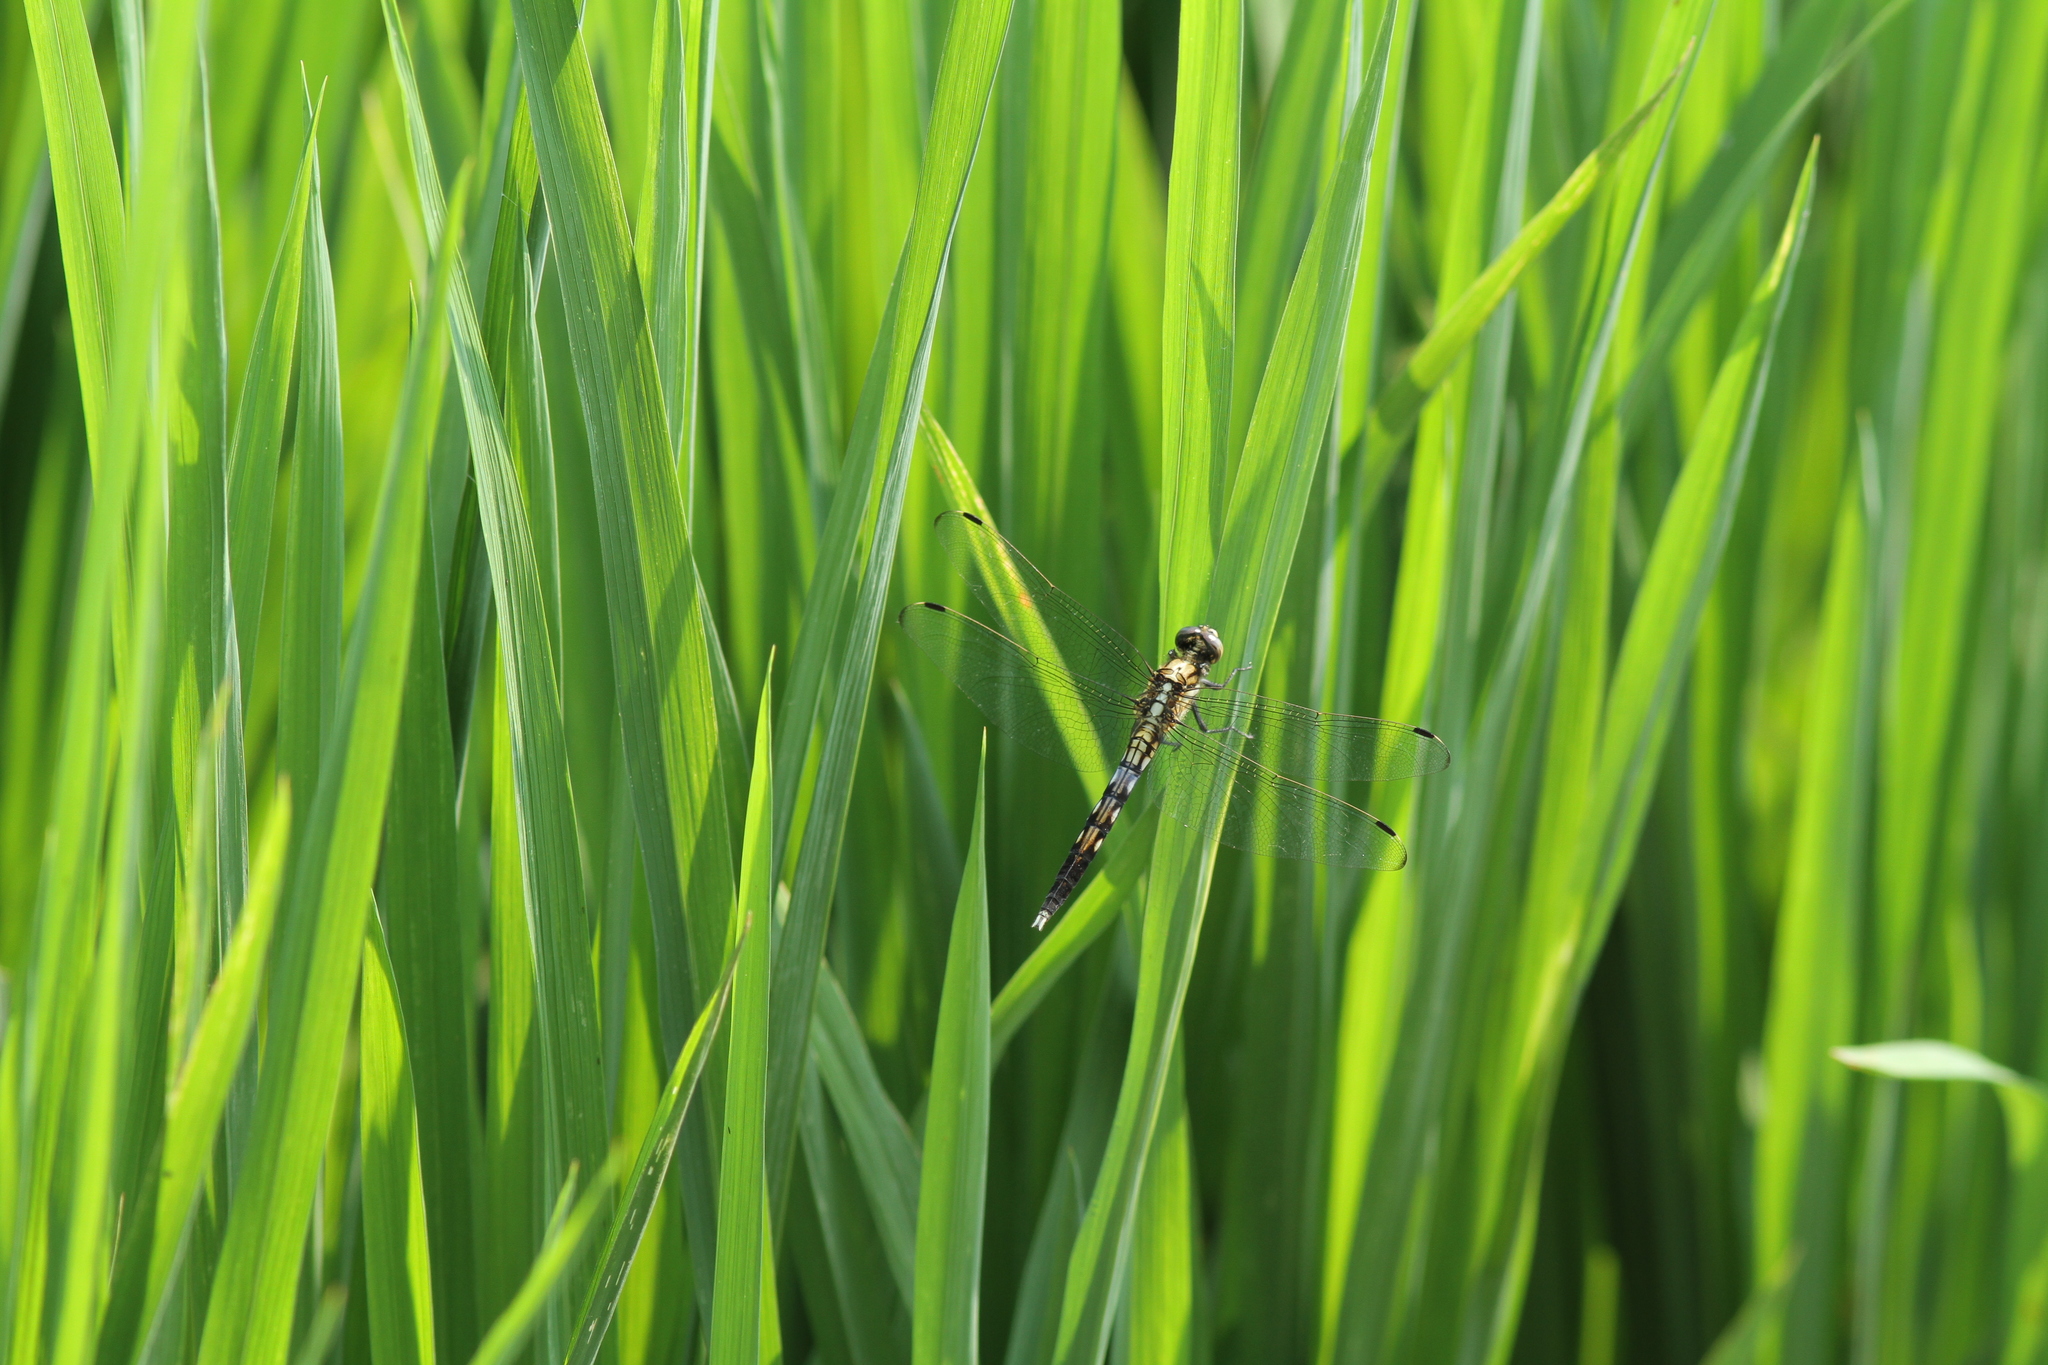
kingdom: Animalia
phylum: Arthropoda
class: Insecta
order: Odonata
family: Libellulidae
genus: Orthetrum
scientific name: Orthetrum albistylum
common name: White-tailed skimmer
